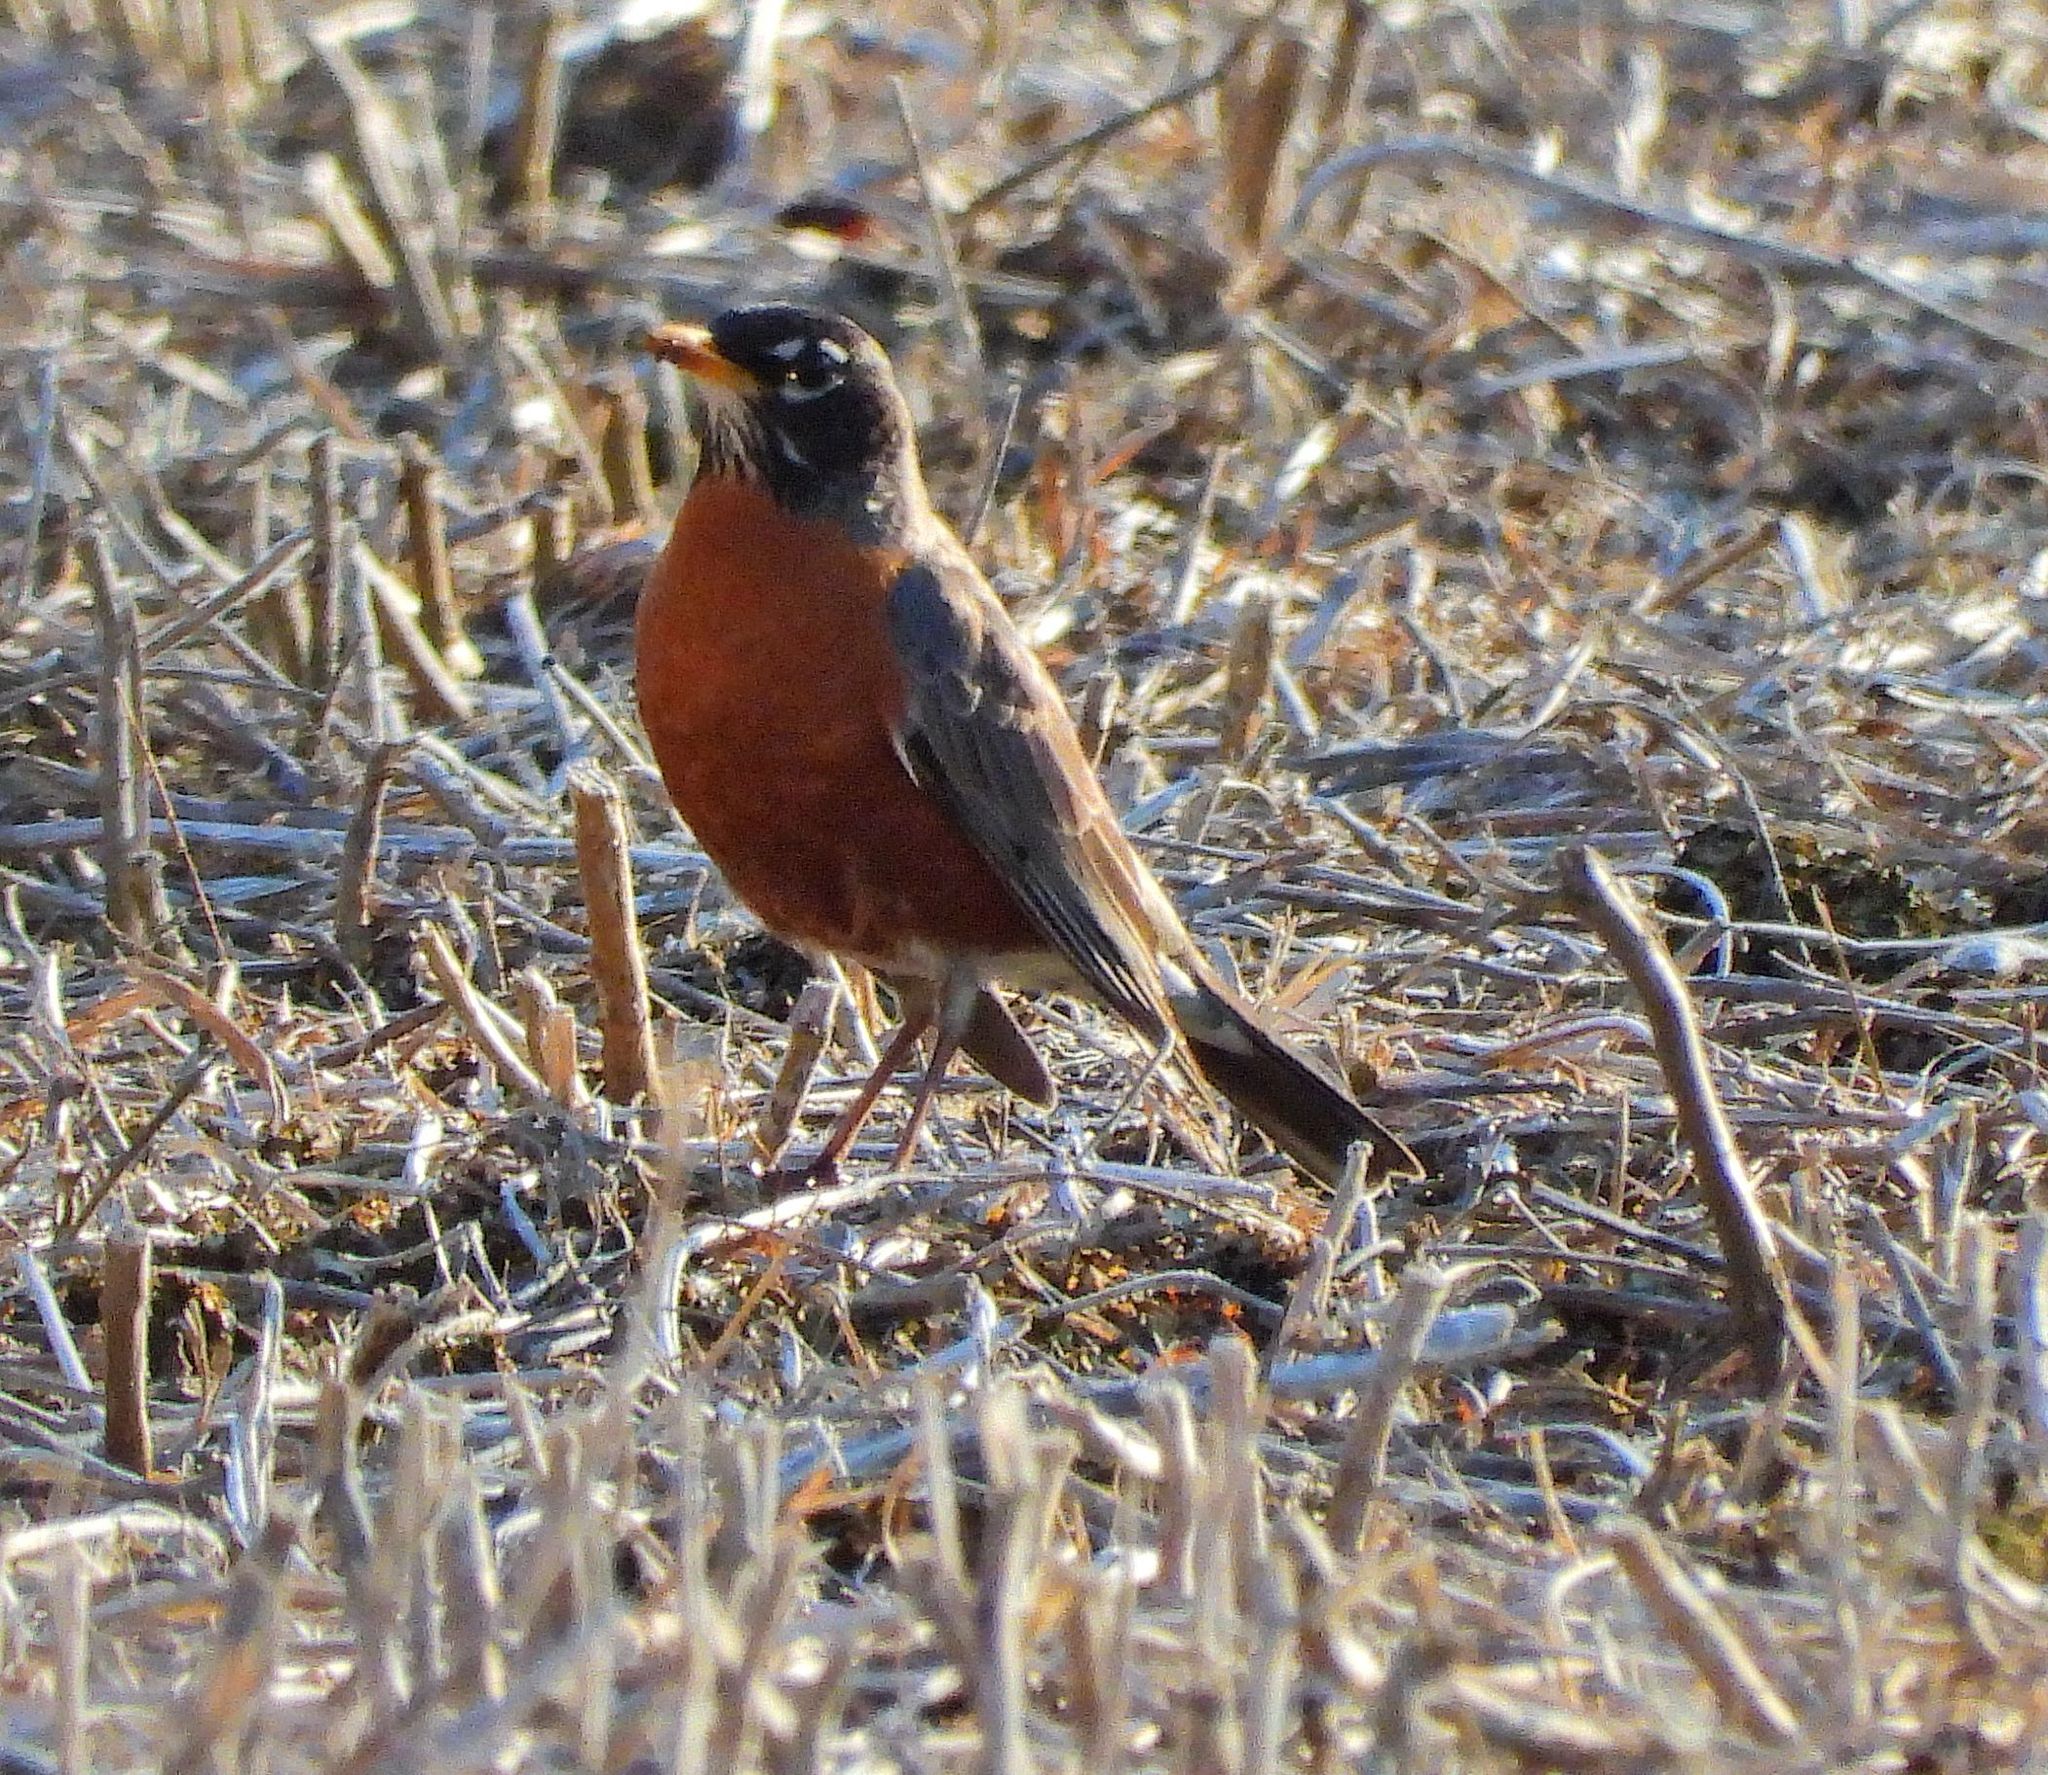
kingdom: Animalia
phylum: Chordata
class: Aves
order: Passeriformes
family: Turdidae
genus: Turdus
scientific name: Turdus migratorius
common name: American robin
